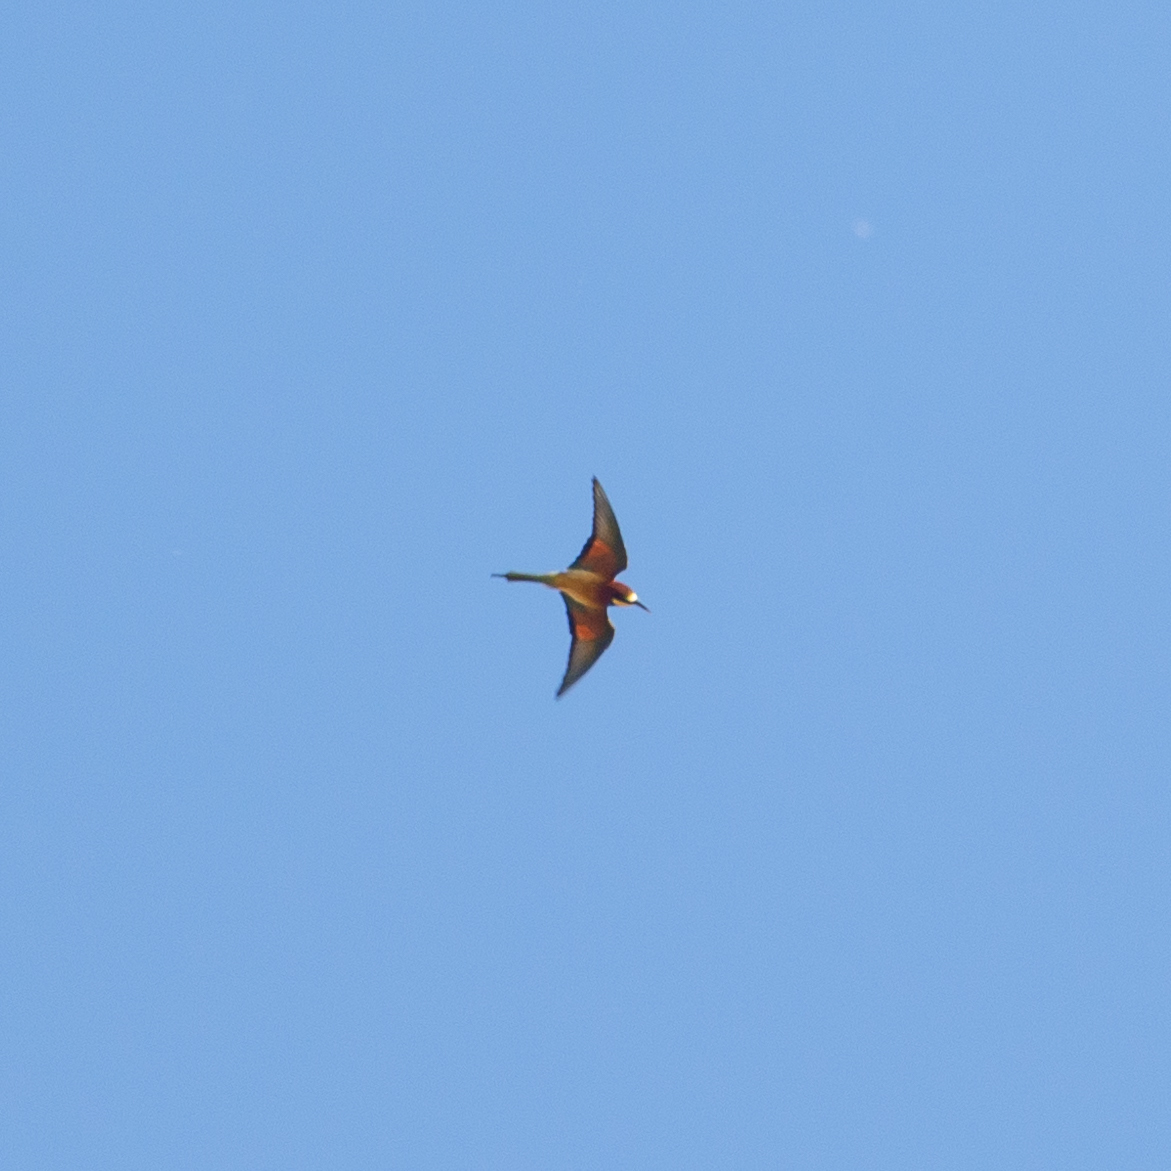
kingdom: Animalia
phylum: Chordata
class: Aves
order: Coraciiformes
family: Meropidae
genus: Merops
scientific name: Merops apiaster
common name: European bee-eater
